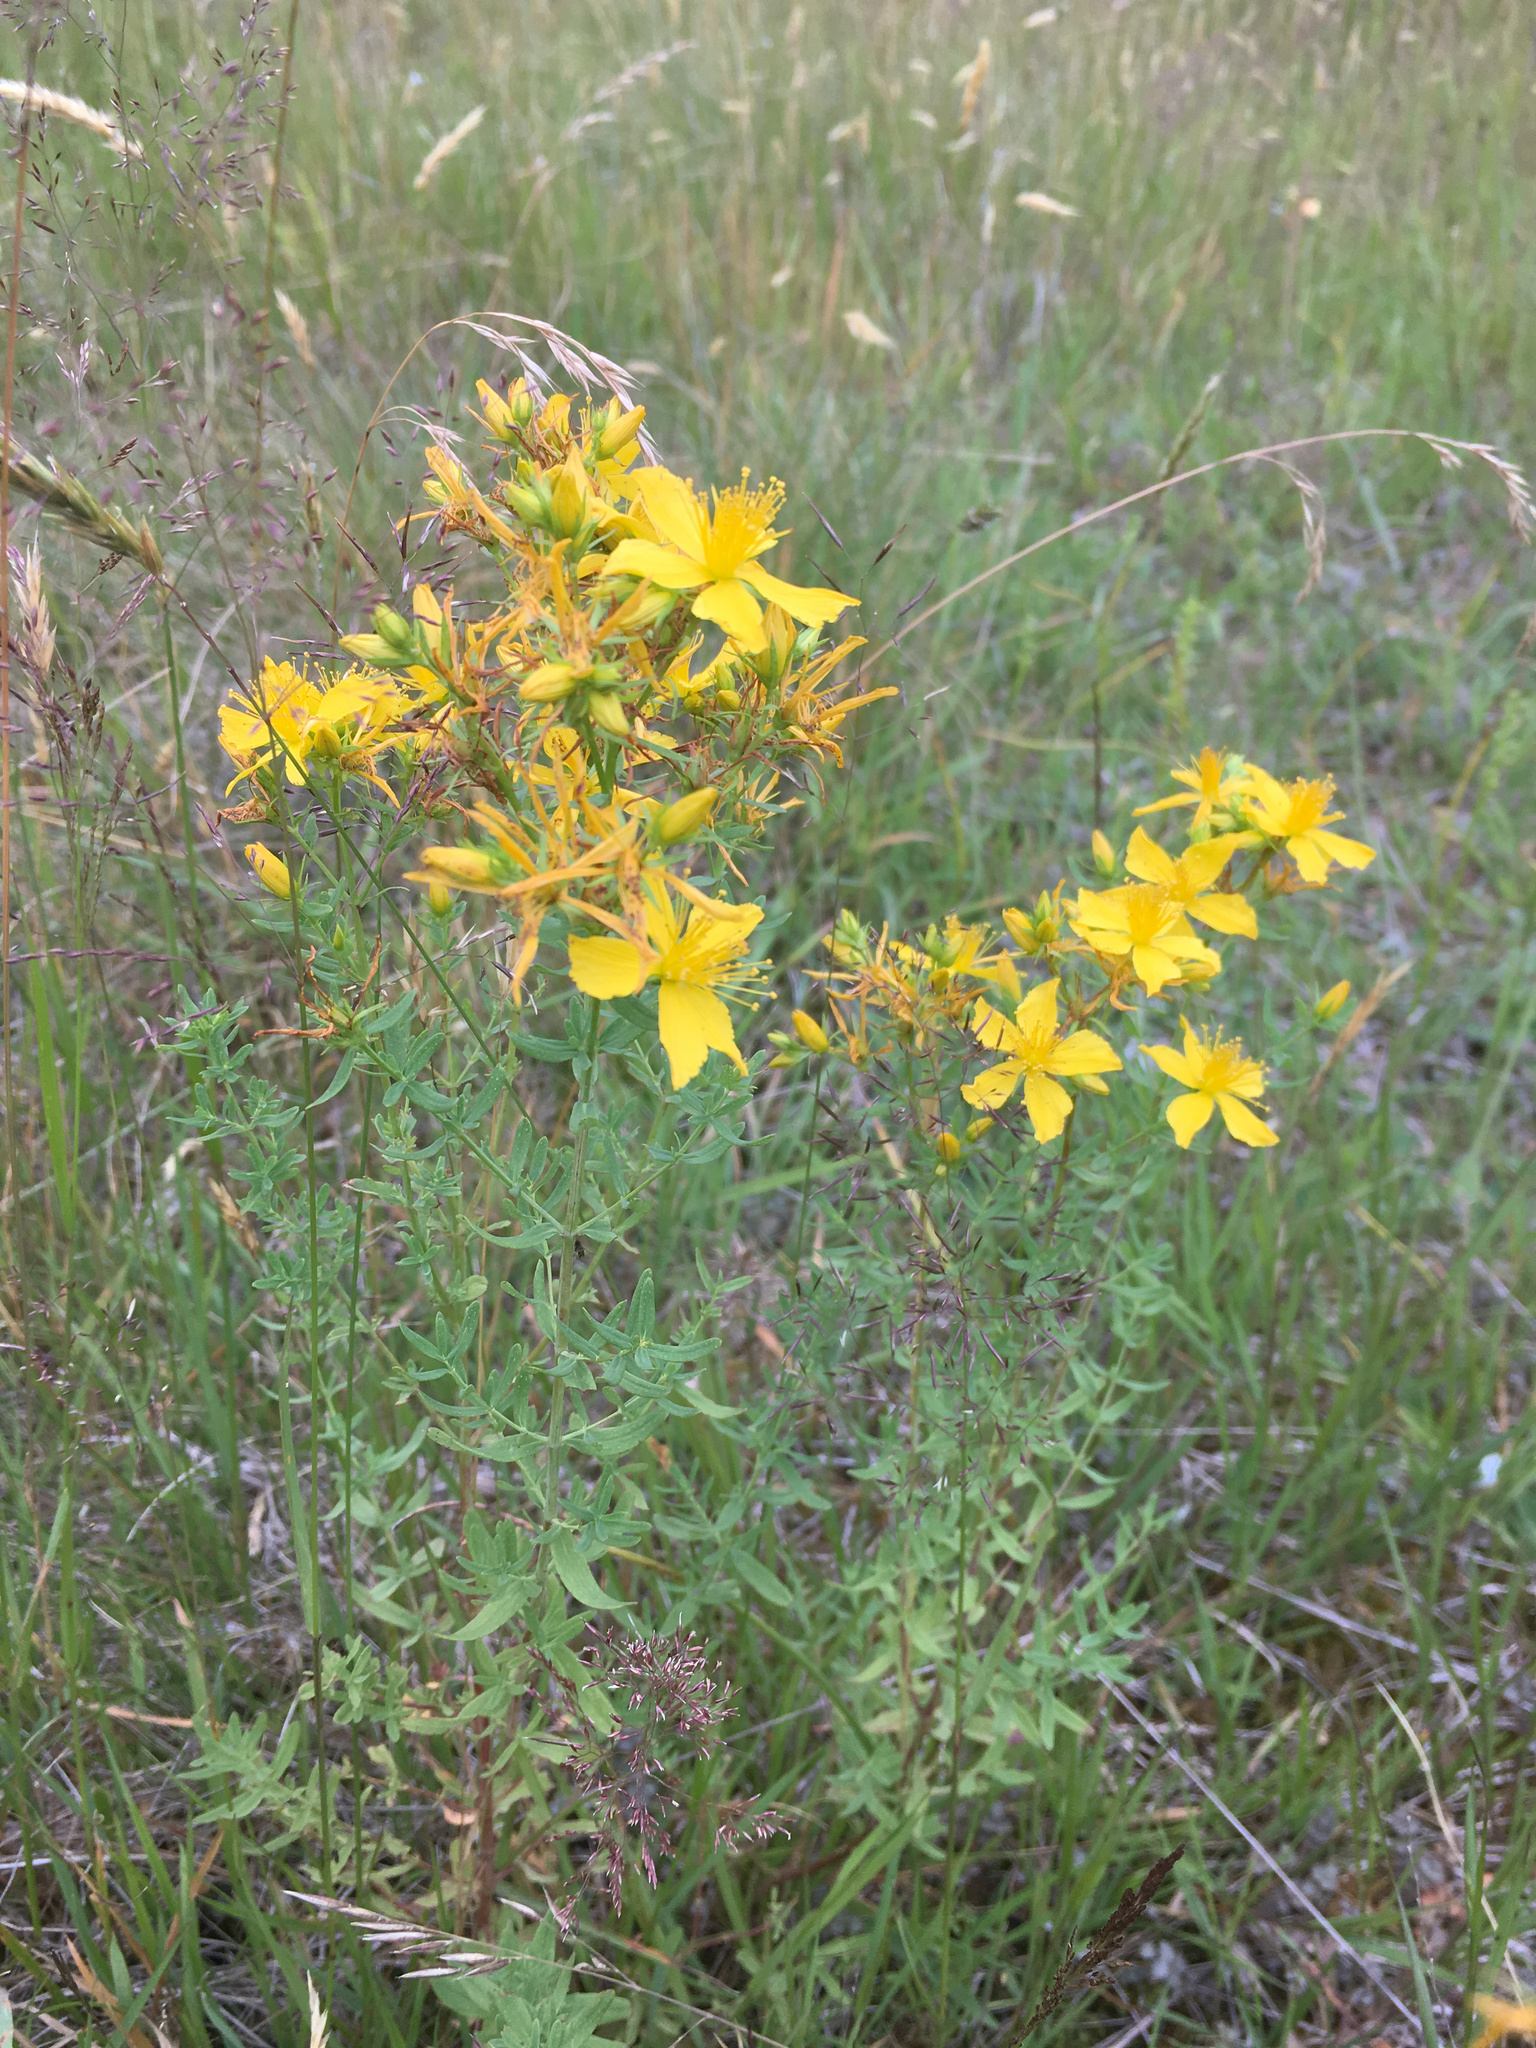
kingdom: Plantae
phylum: Tracheophyta
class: Magnoliopsida
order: Malpighiales
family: Hypericaceae
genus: Hypericum
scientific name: Hypericum perforatum
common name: Common st. johnswort
